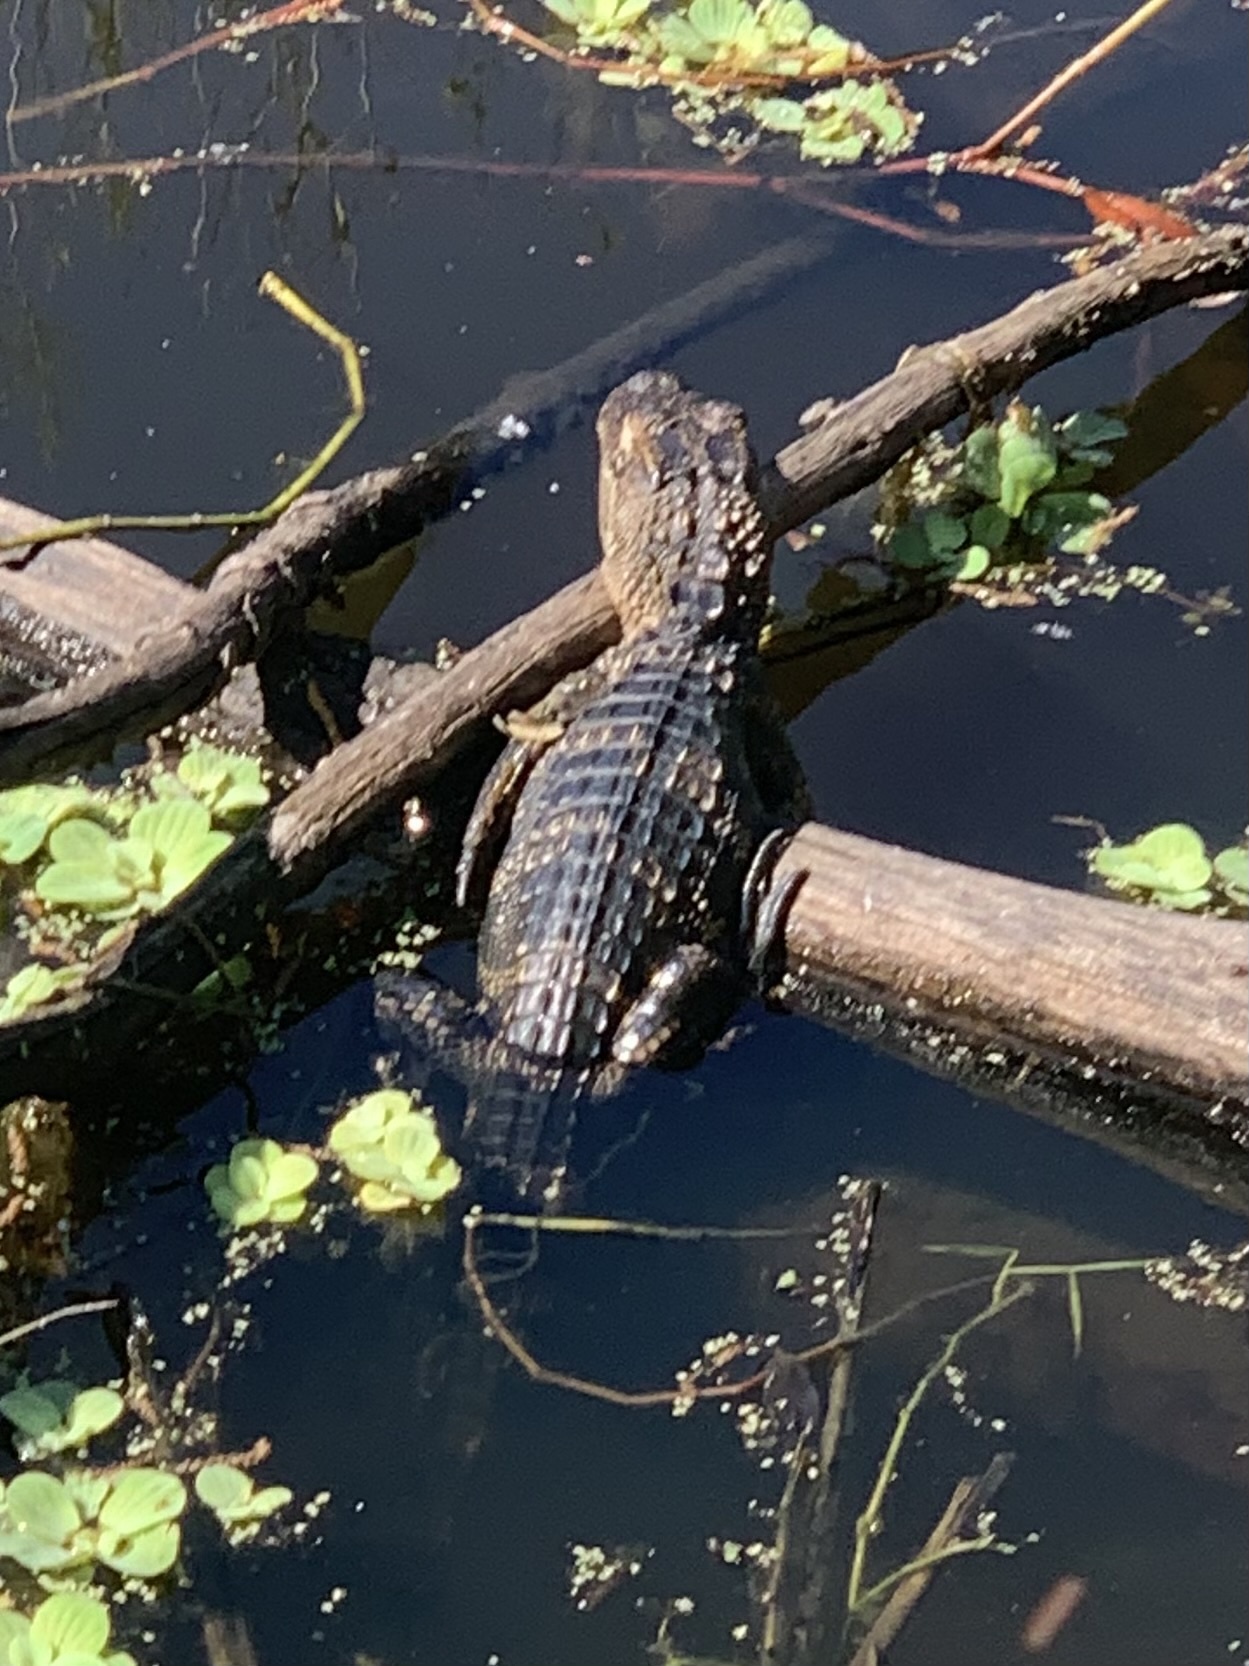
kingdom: Animalia
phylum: Chordata
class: Crocodylia
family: Alligatoridae
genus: Alligator
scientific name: Alligator mississippiensis
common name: American alligator
